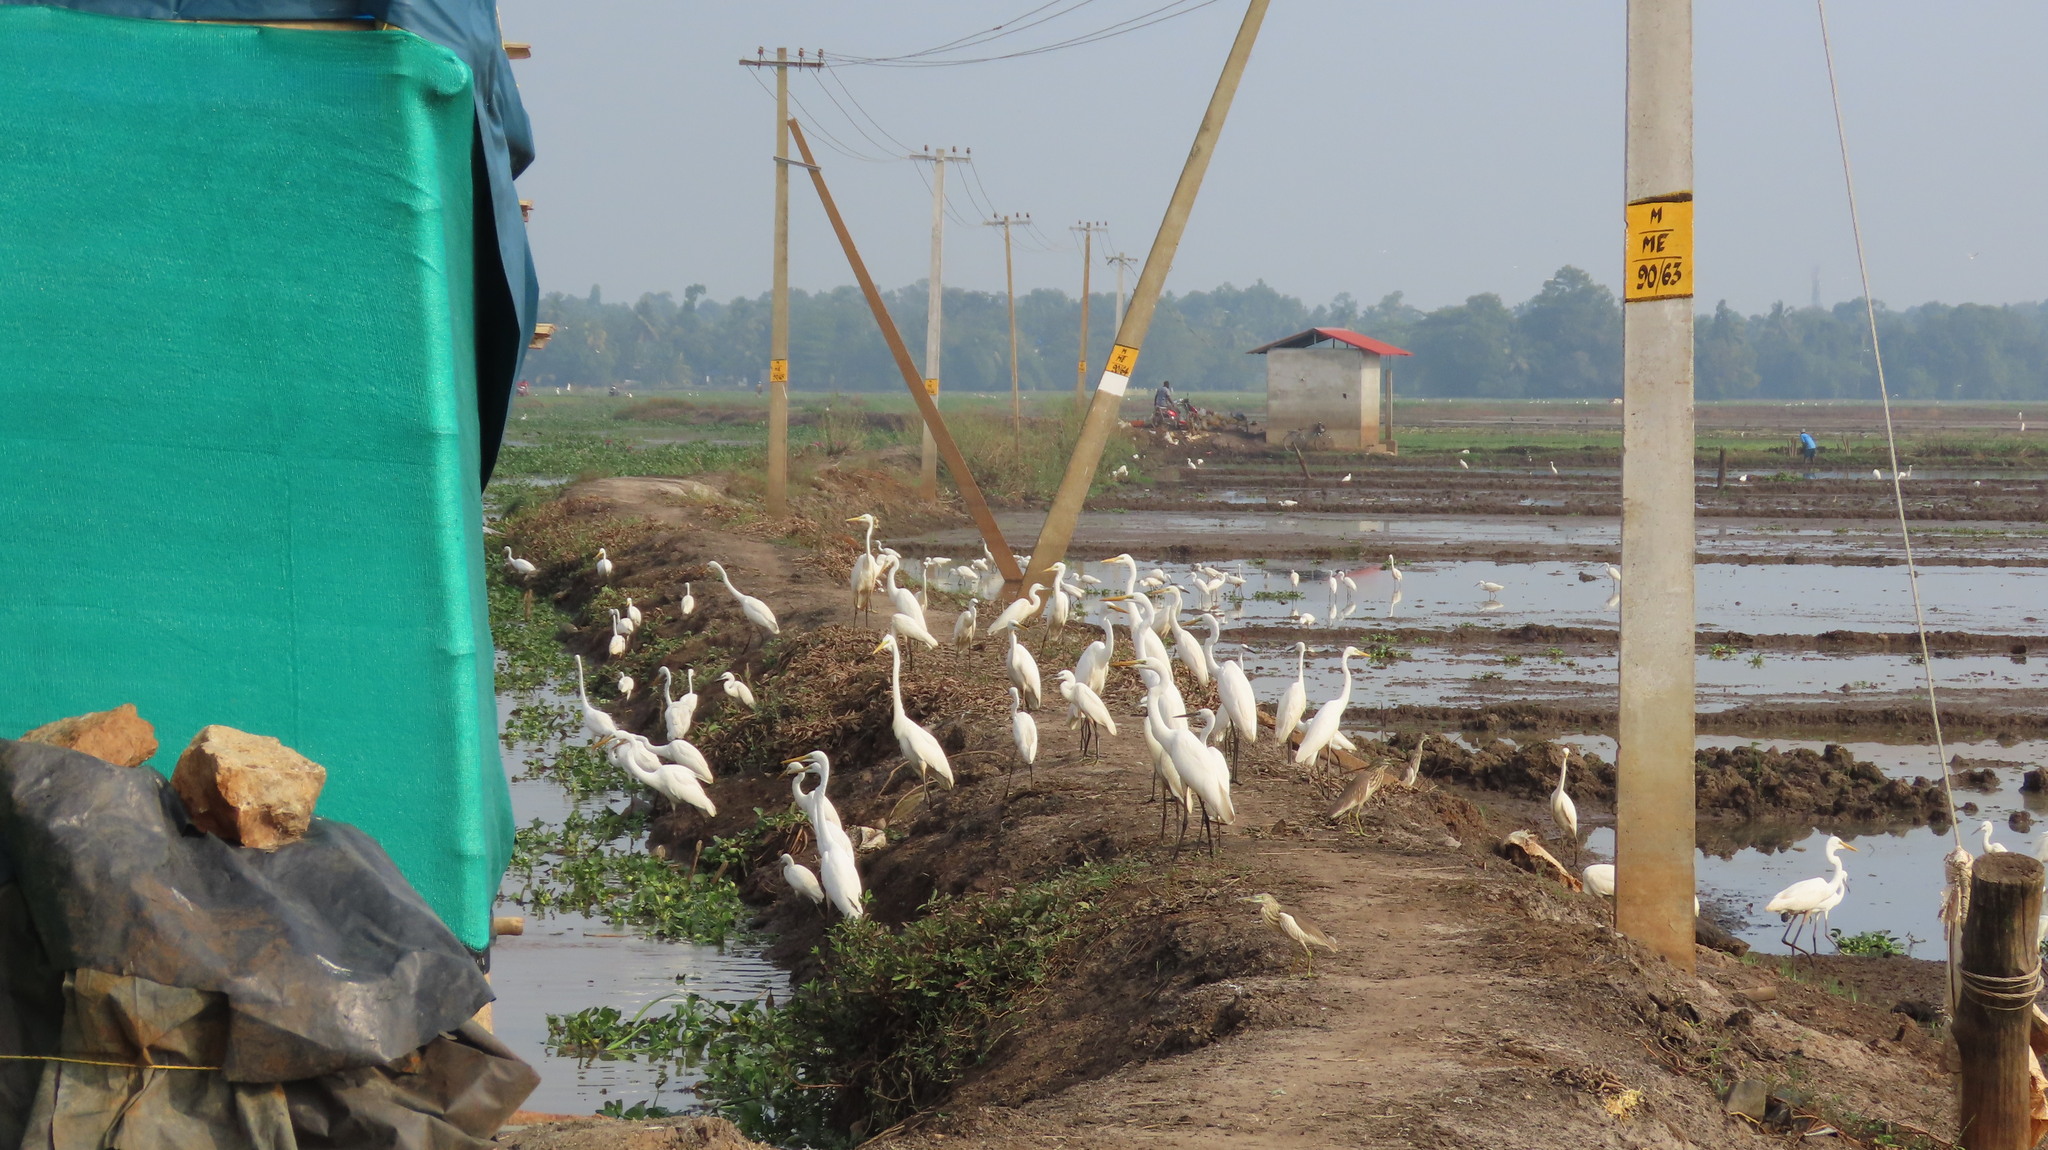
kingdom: Animalia
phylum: Chordata
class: Aves
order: Pelecaniformes
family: Ardeidae
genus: Egretta
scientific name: Egretta garzetta
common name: Little egret
